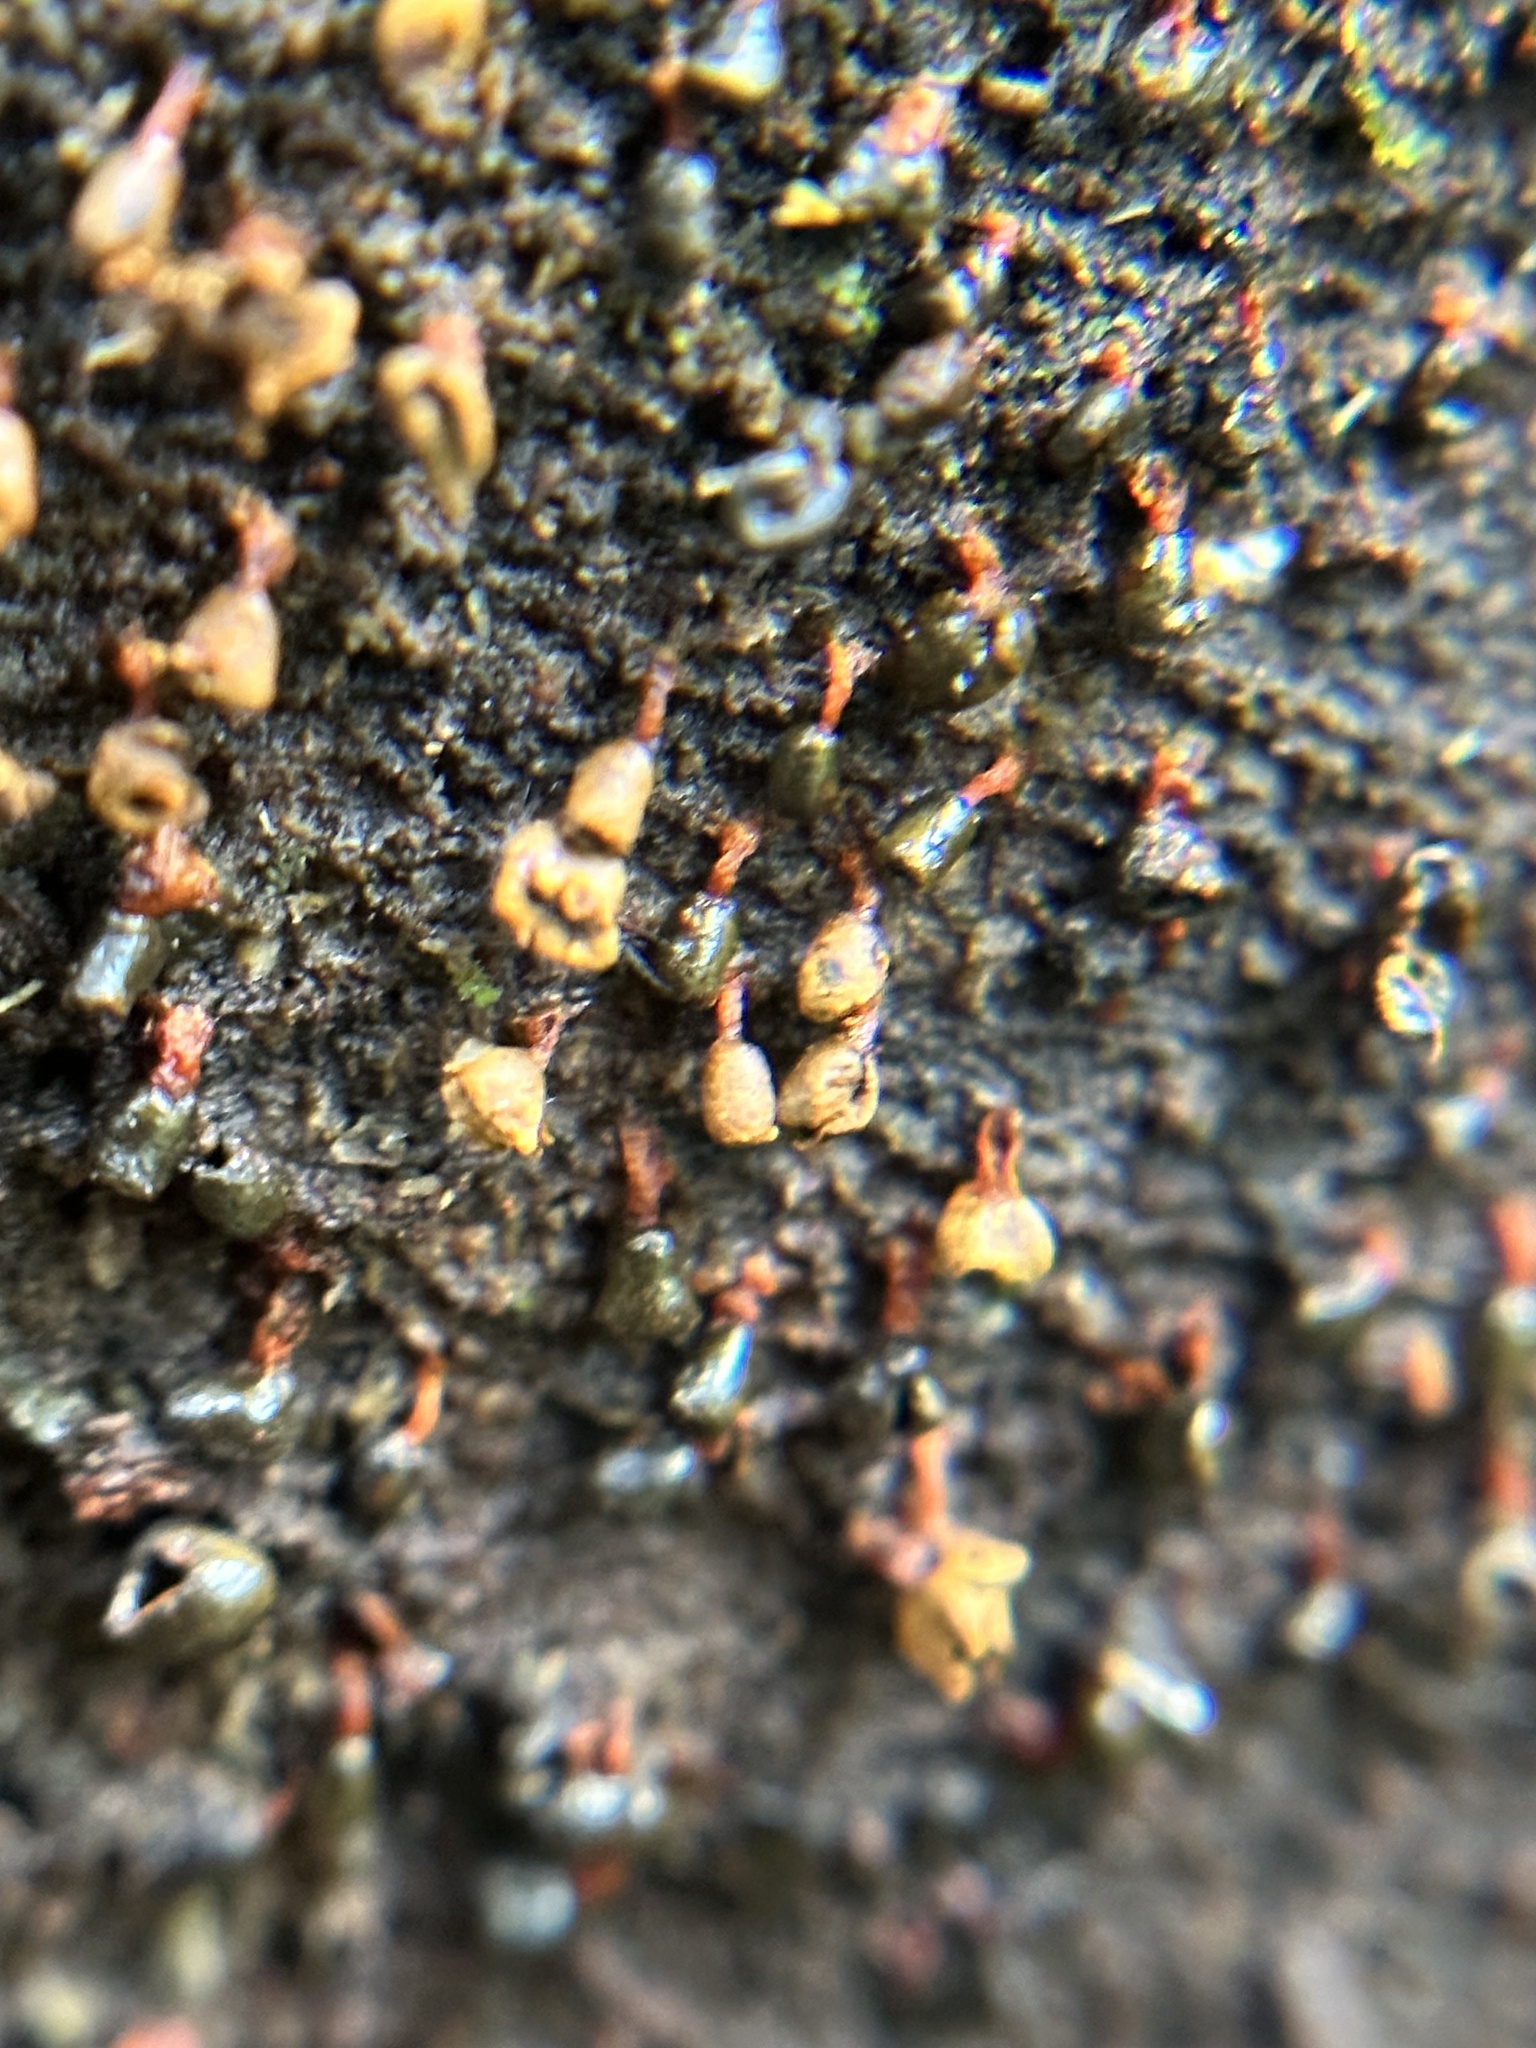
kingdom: Protozoa
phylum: Mycetozoa
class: Myxomycetes
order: Physarales
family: Physaraceae
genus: Physarella
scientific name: Physarella oblonga
